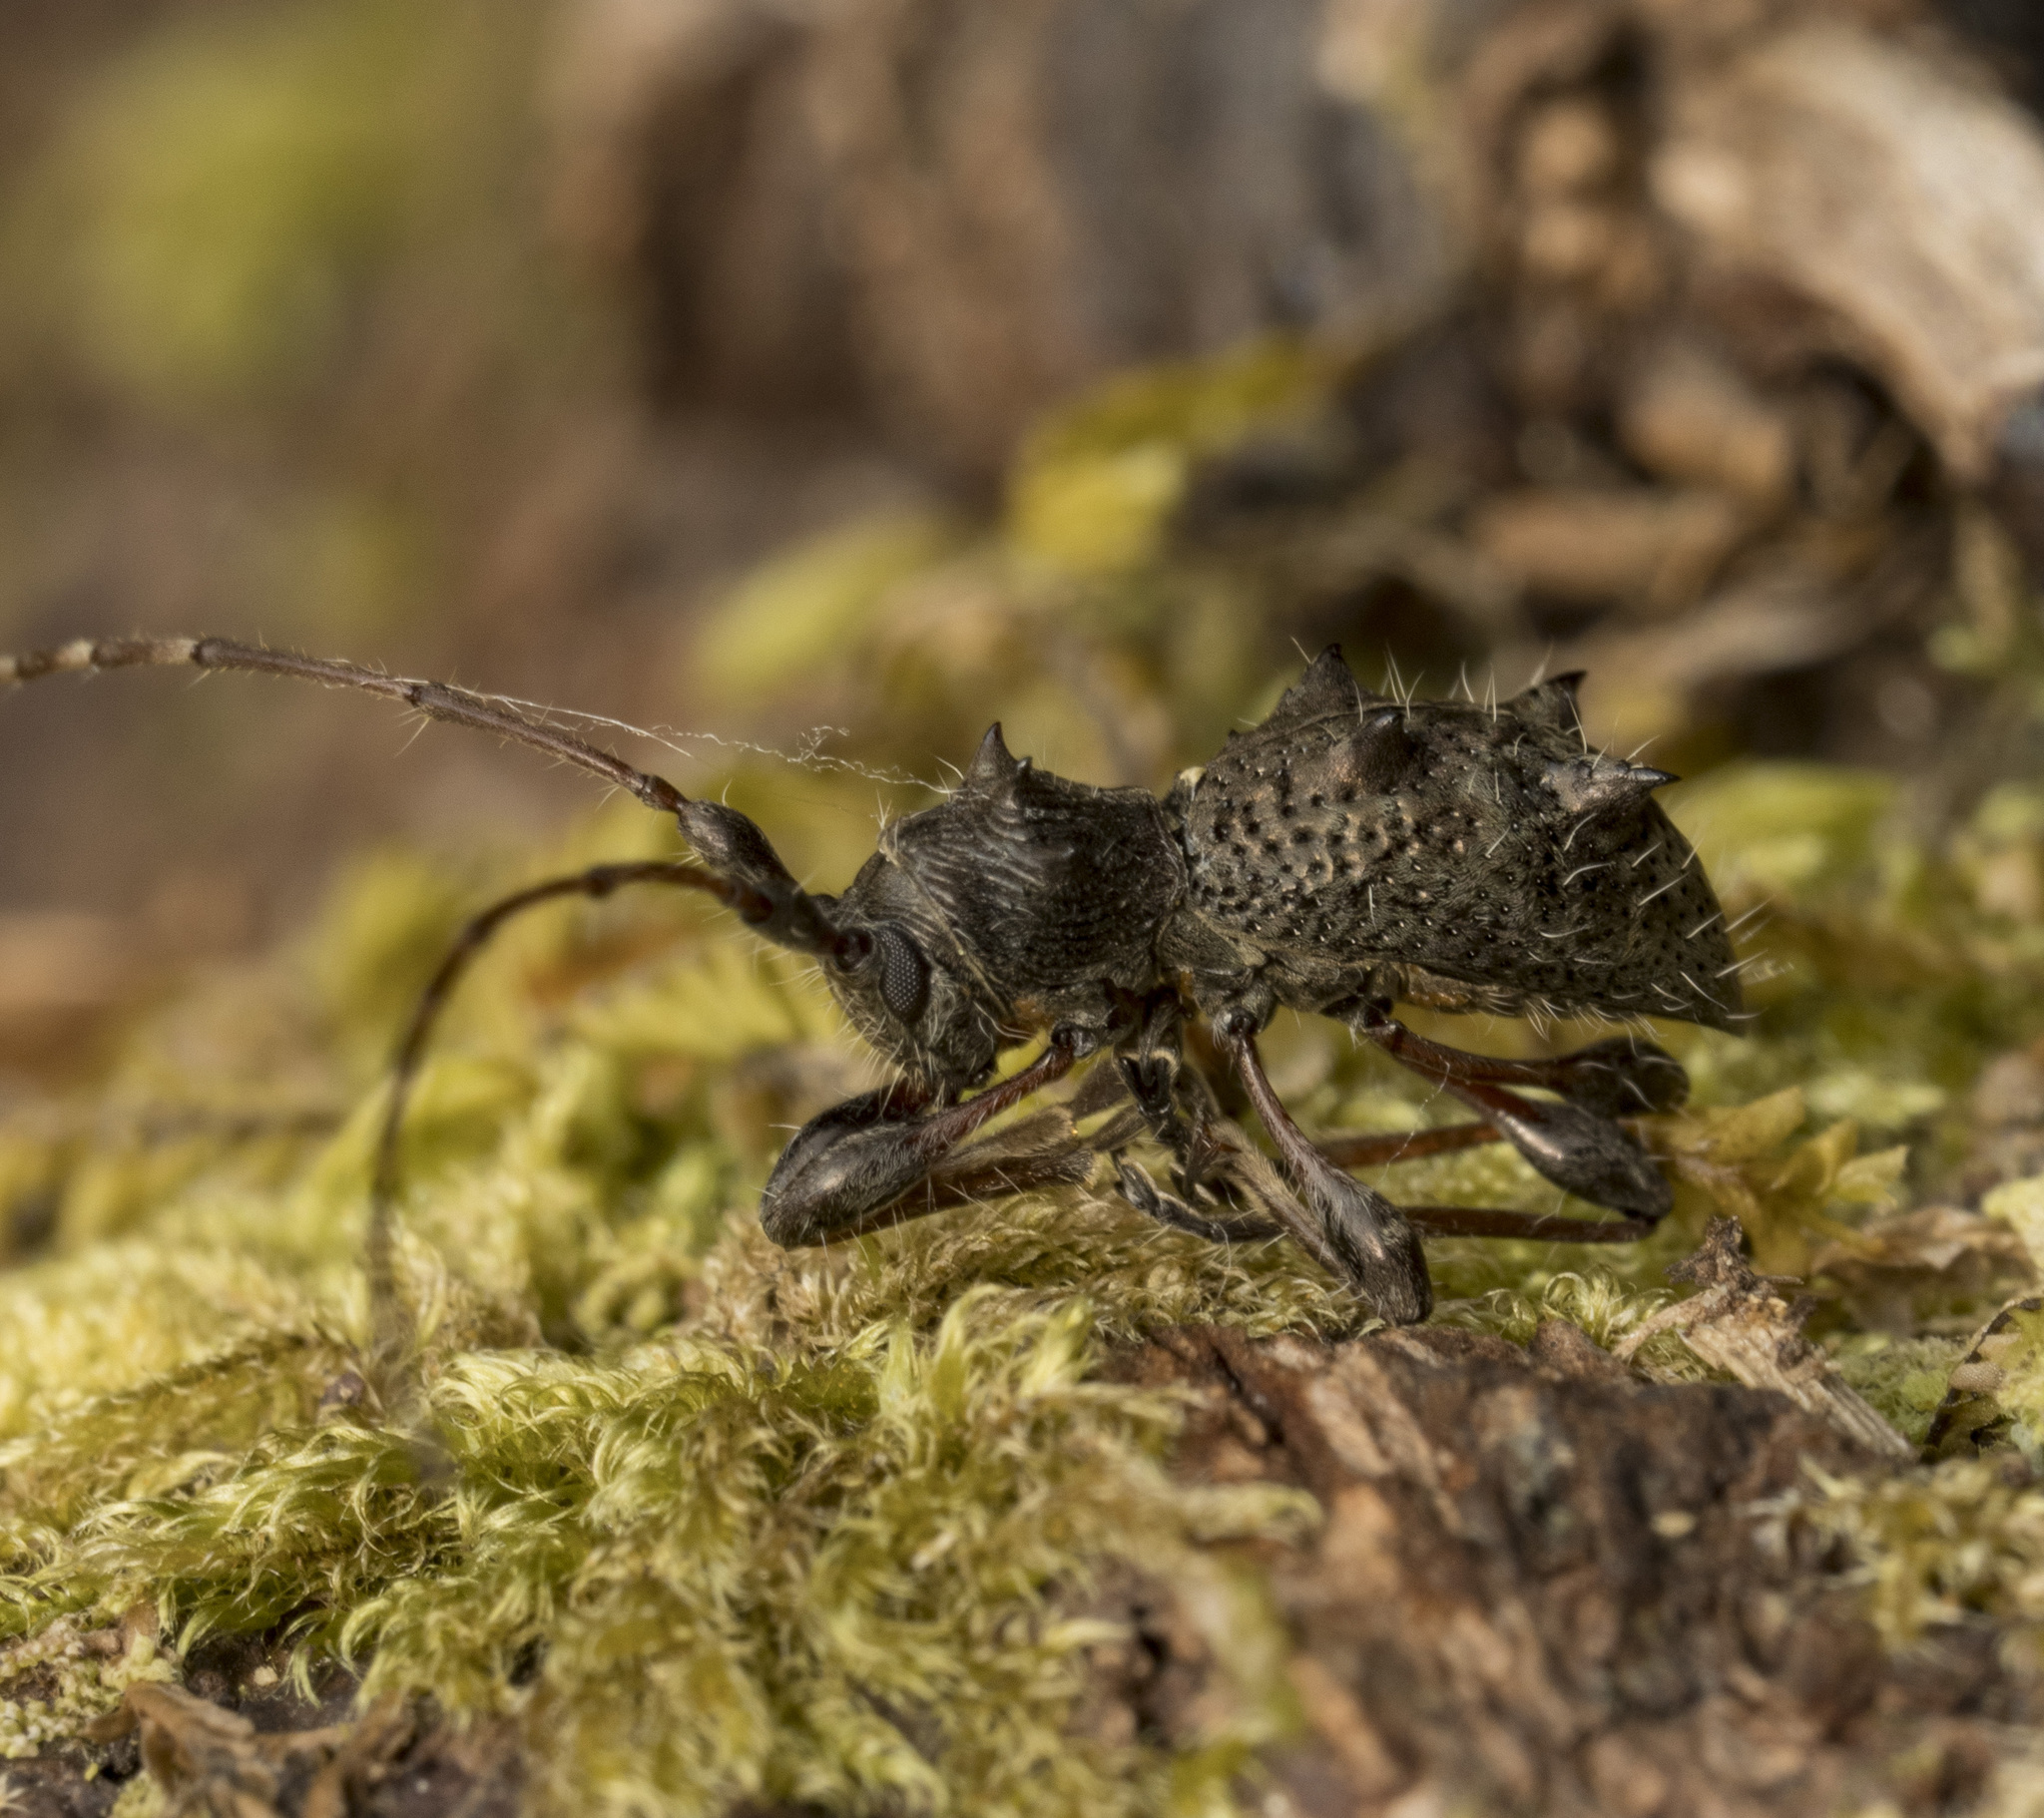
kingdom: Animalia
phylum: Arthropoda
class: Insecta
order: Coleoptera
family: Cerambycidae
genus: Neohoplonotus
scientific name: Neohoplonotus spiniferus
